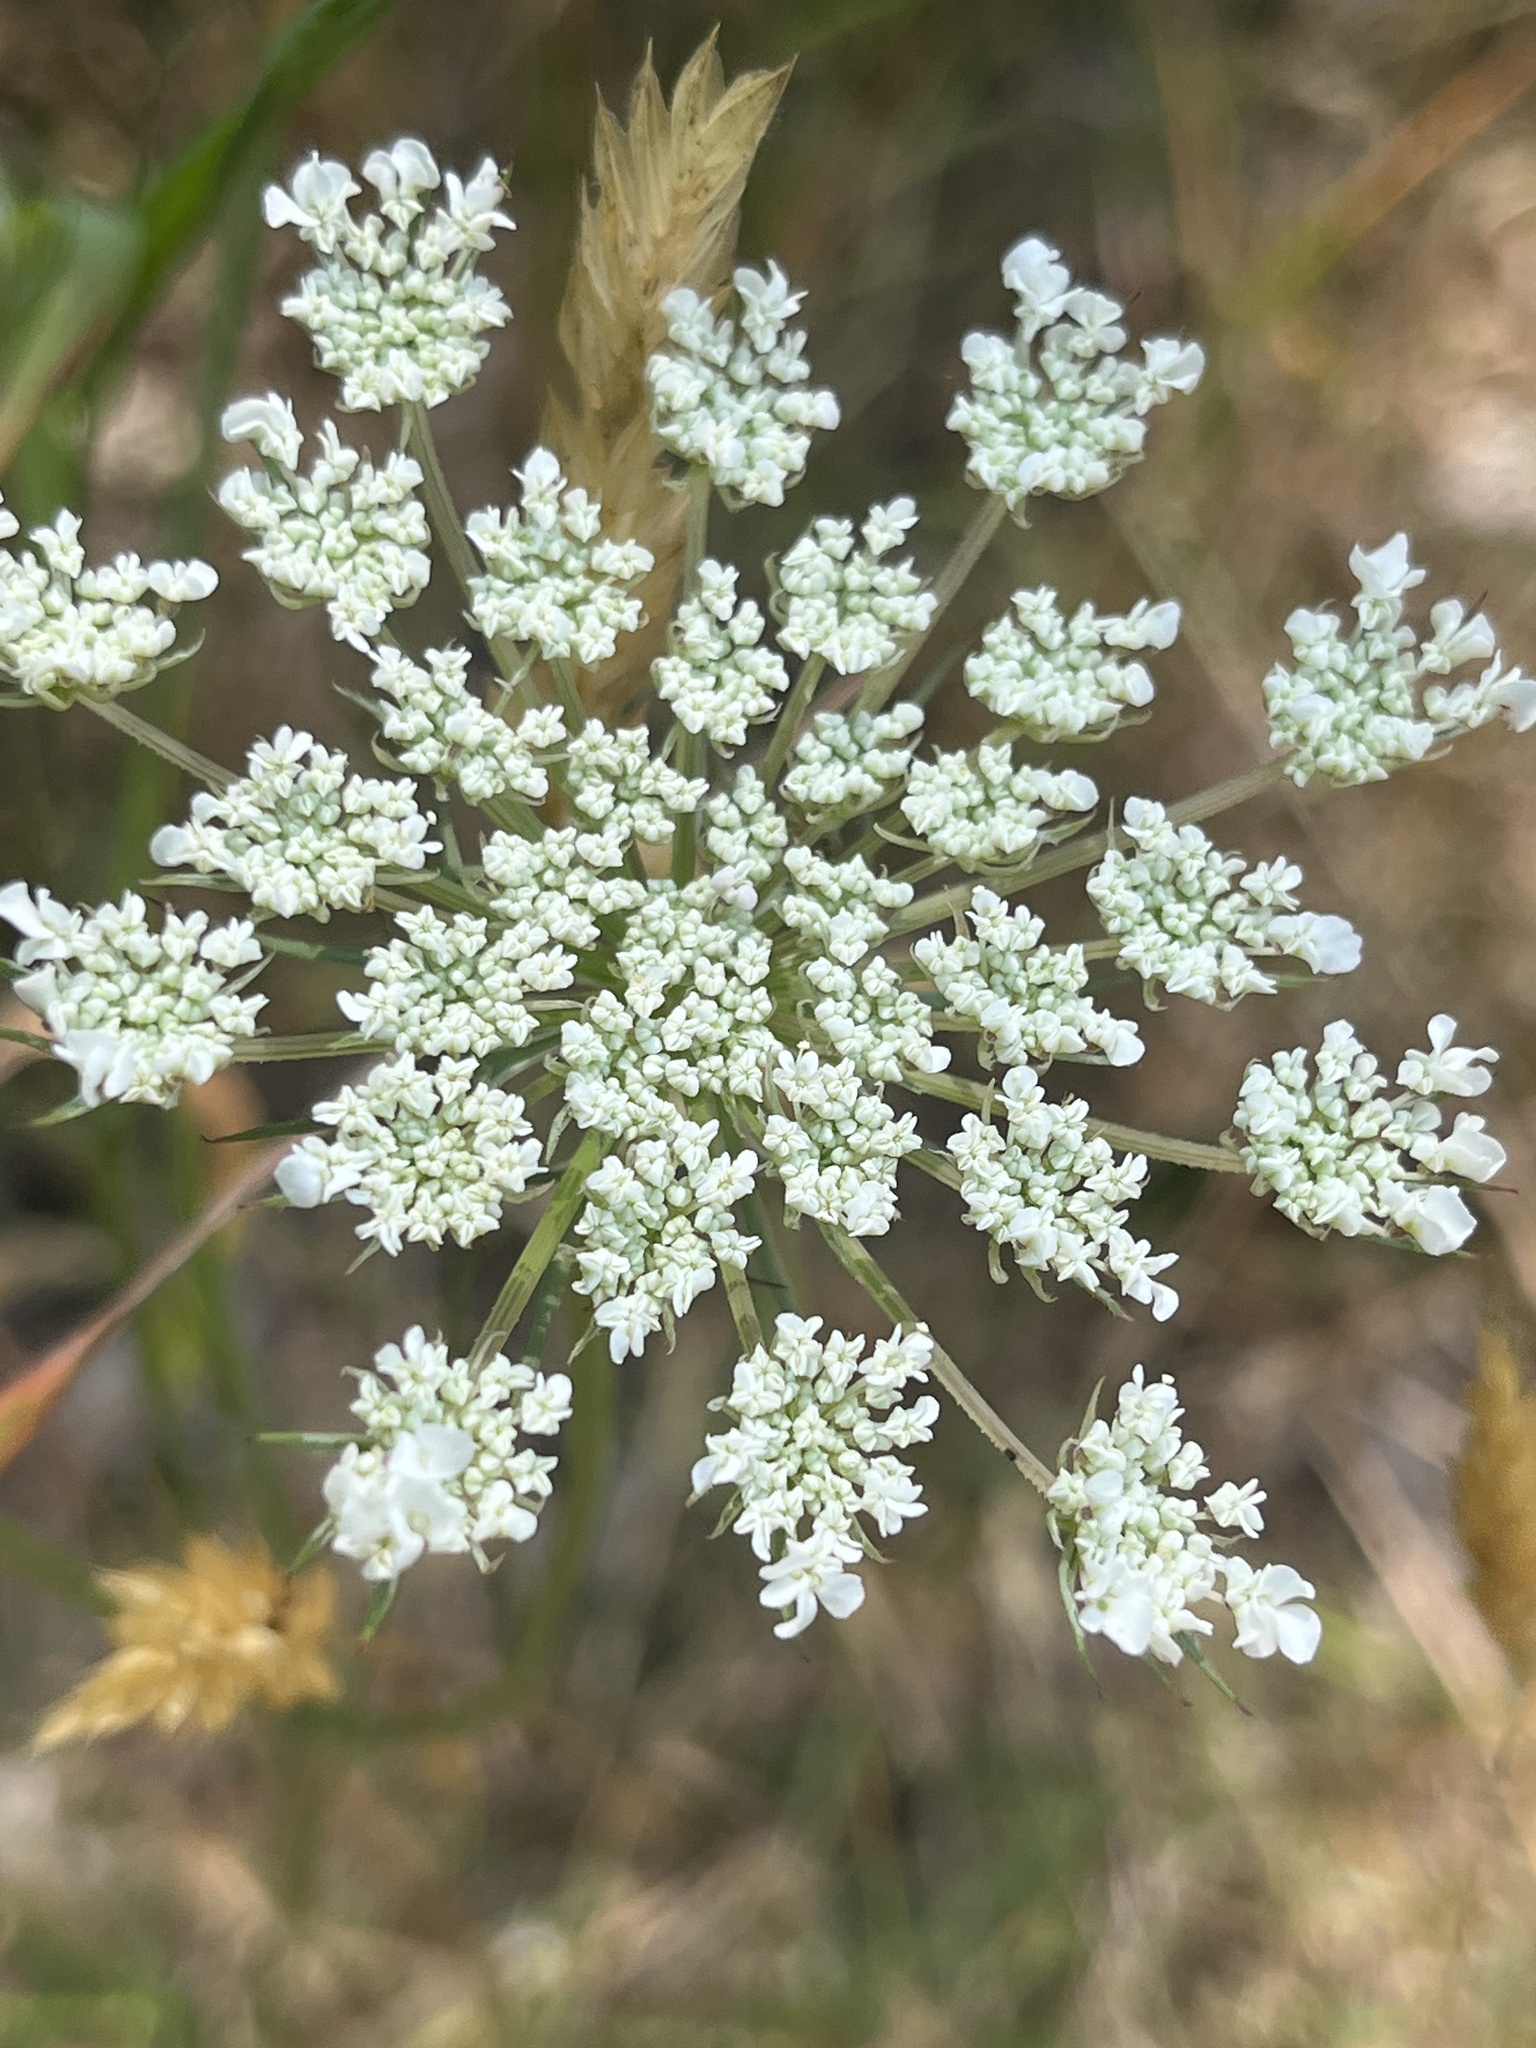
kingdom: Plantae
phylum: Tracheophyta
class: Magnoliopsida
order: Apiales
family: Apiaceae
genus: Daucus
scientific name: Daucus carota
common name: Wild carrot
